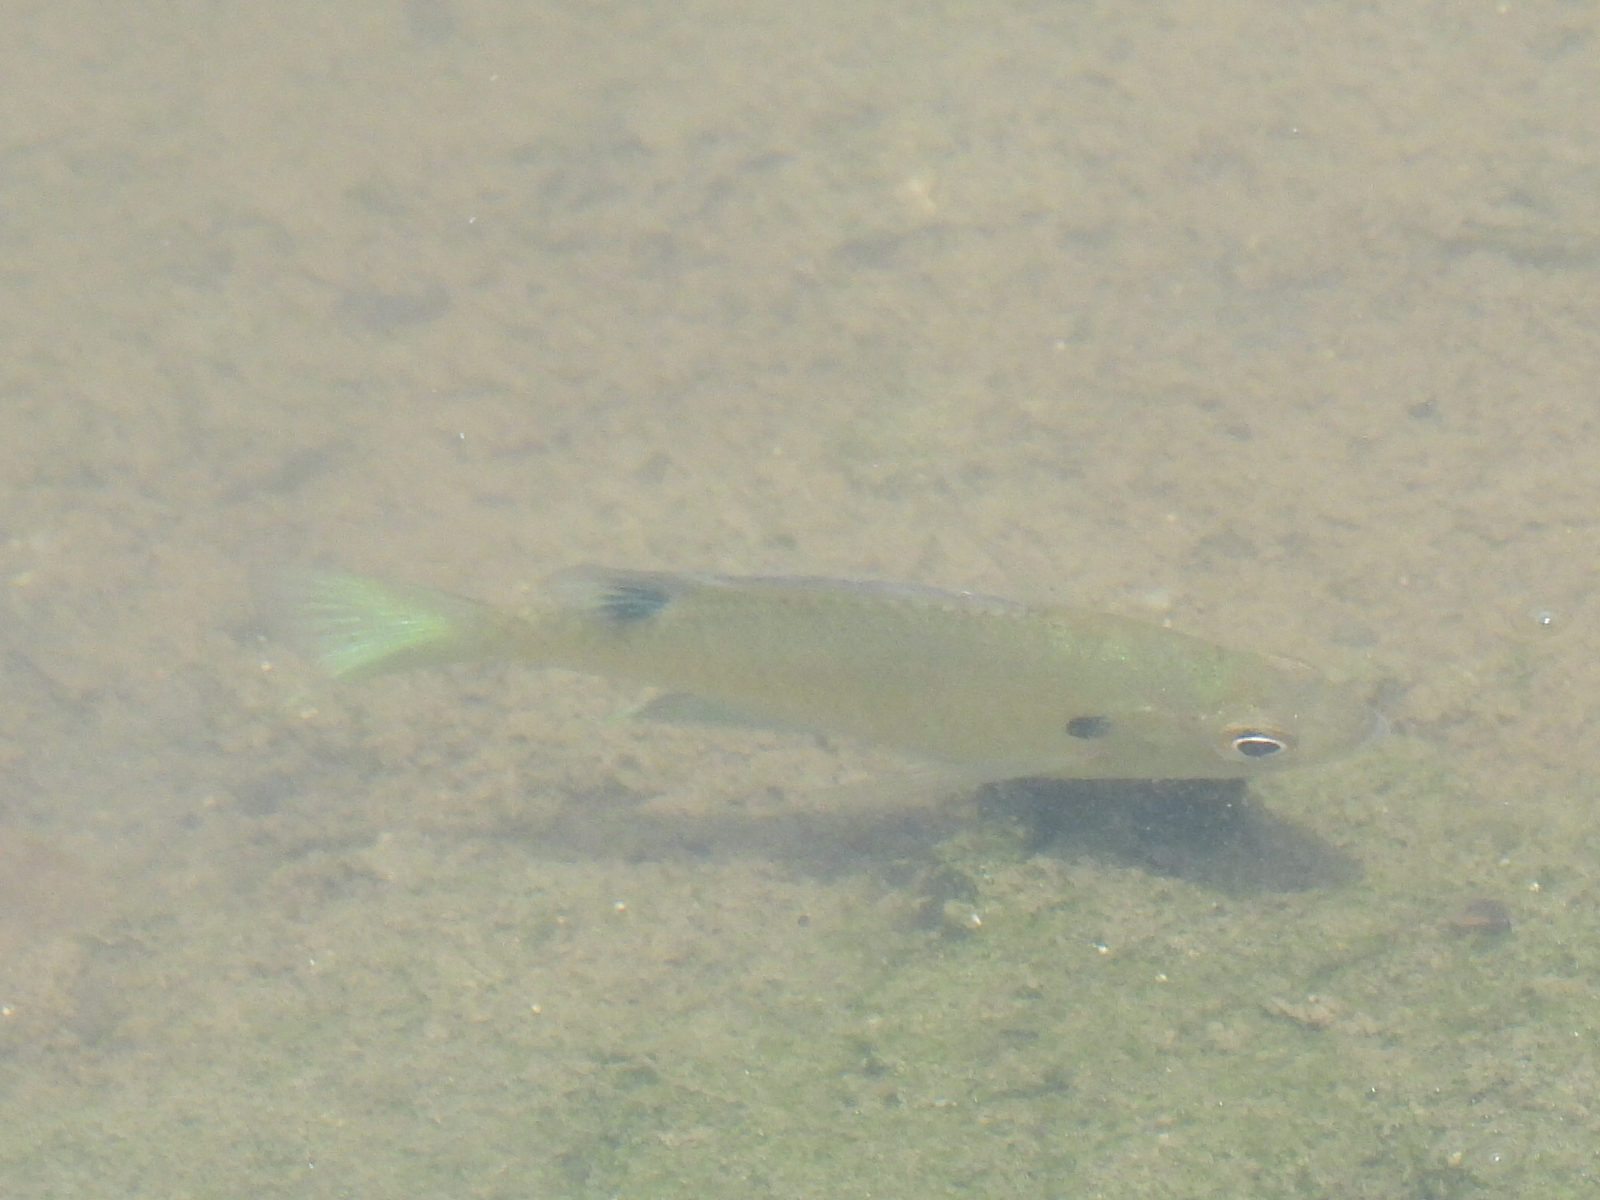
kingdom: Animalia
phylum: Chordata
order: Perciformes
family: Centrarchidae
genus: Lepomis
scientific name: Lepomis macrochirus
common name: Bluegill
